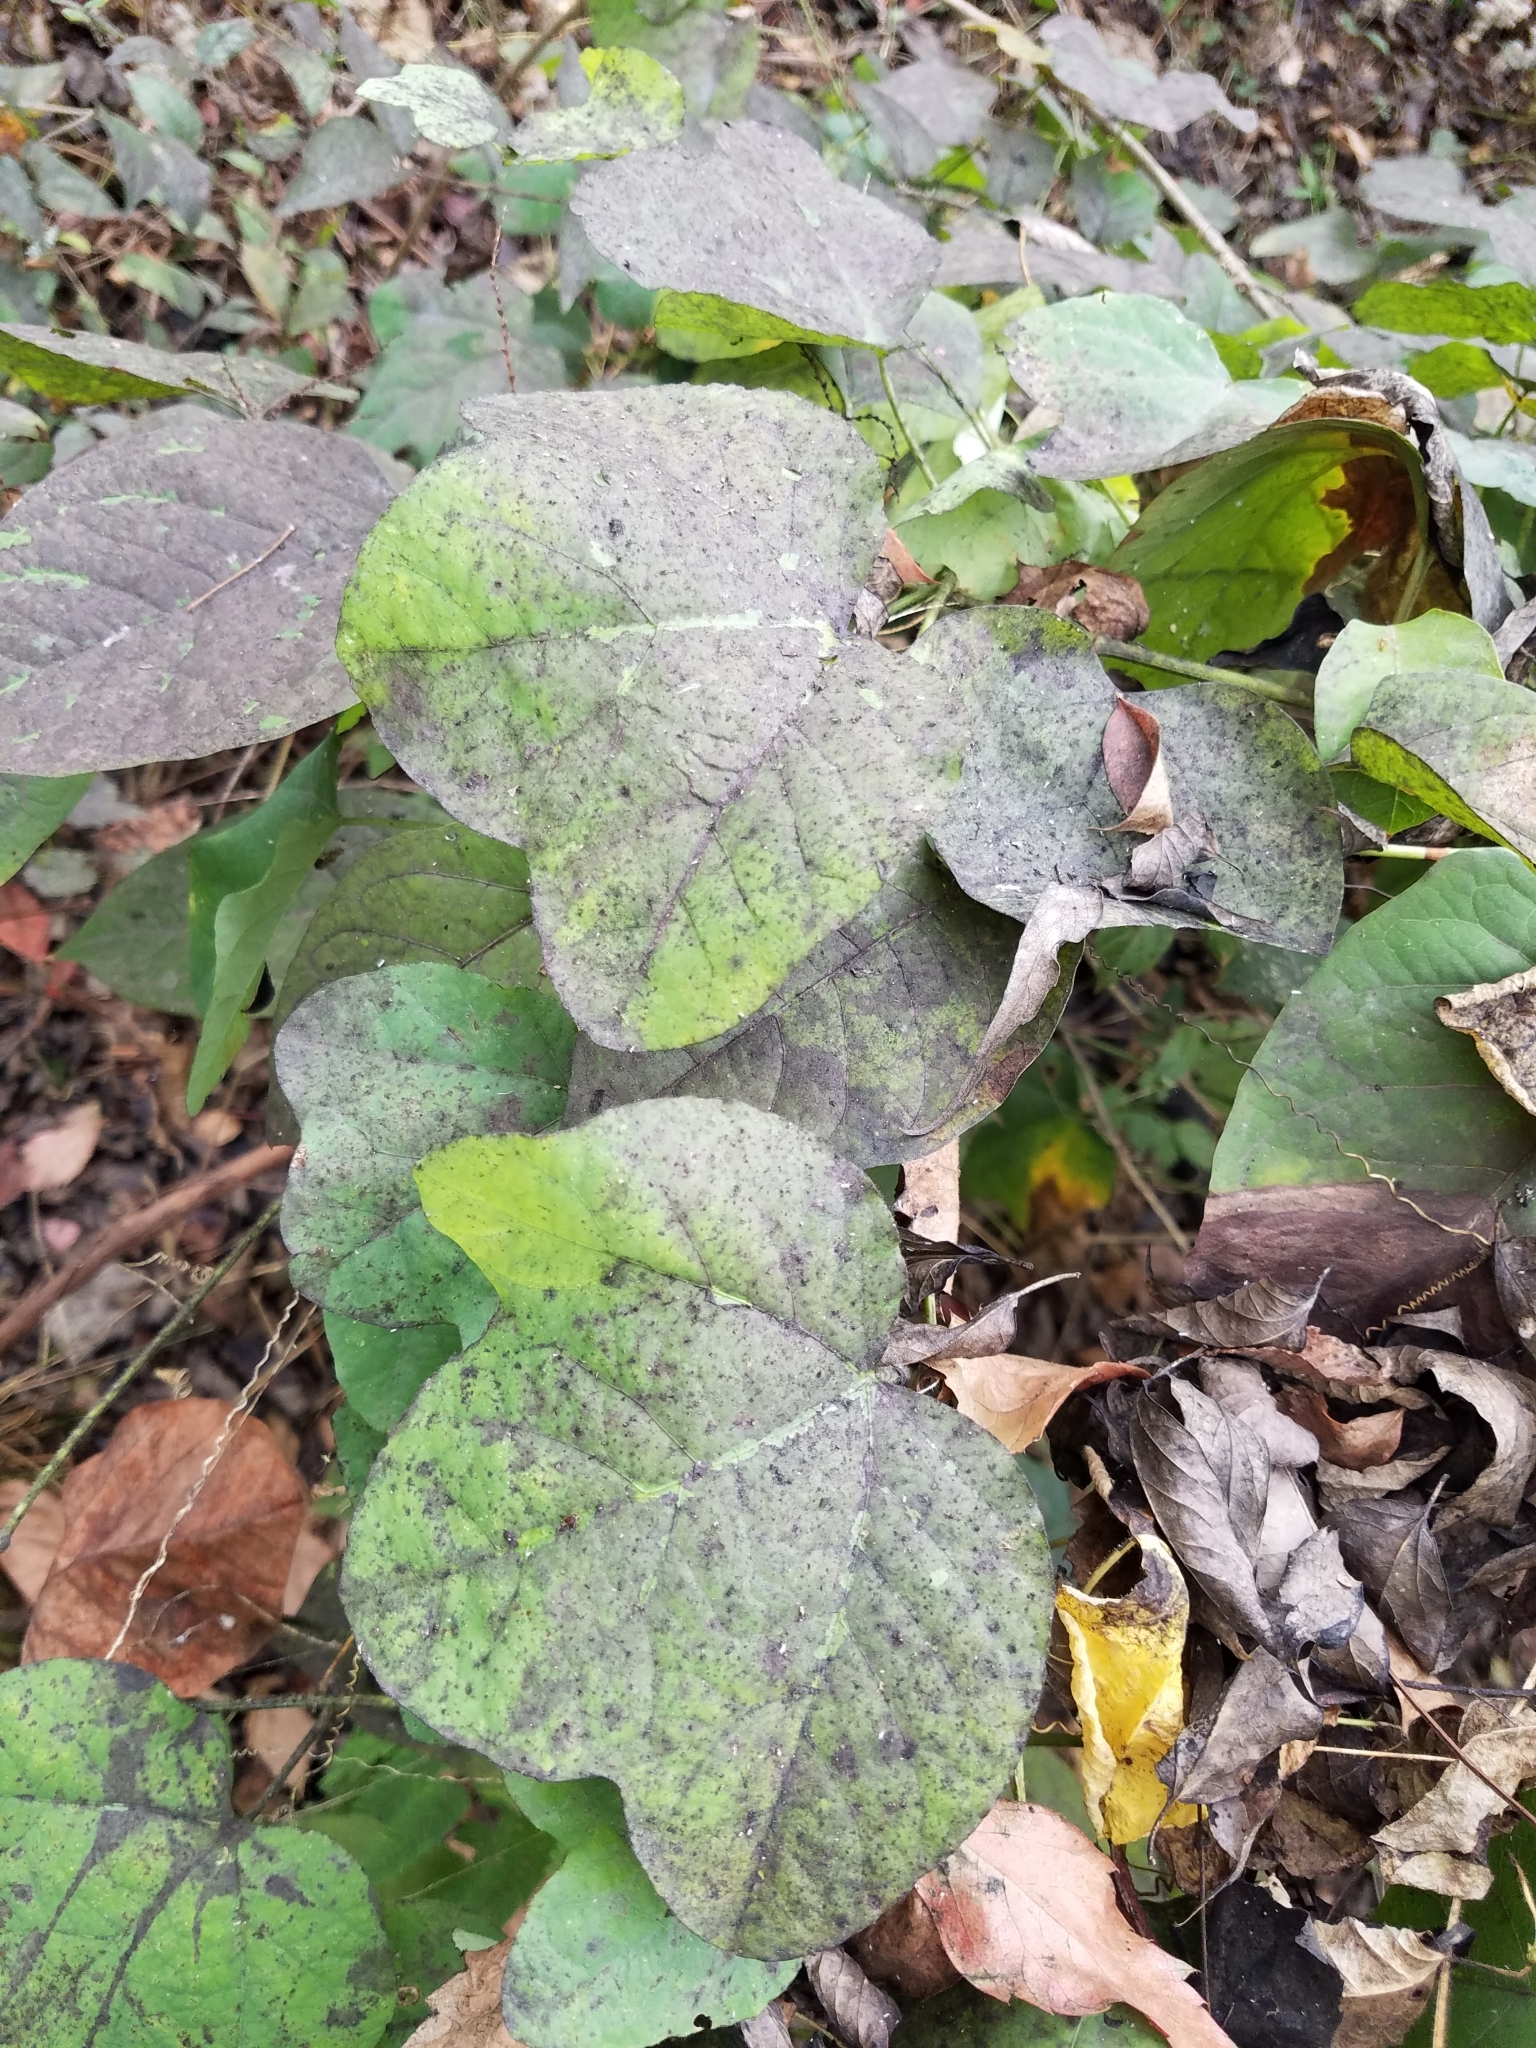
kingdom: Plantae
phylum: Tracheophyta
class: Magnoliopsida
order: Malpighiales
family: Passifloraceae
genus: Passiflora
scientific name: Passiflora lutea
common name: Yellow passionflower
